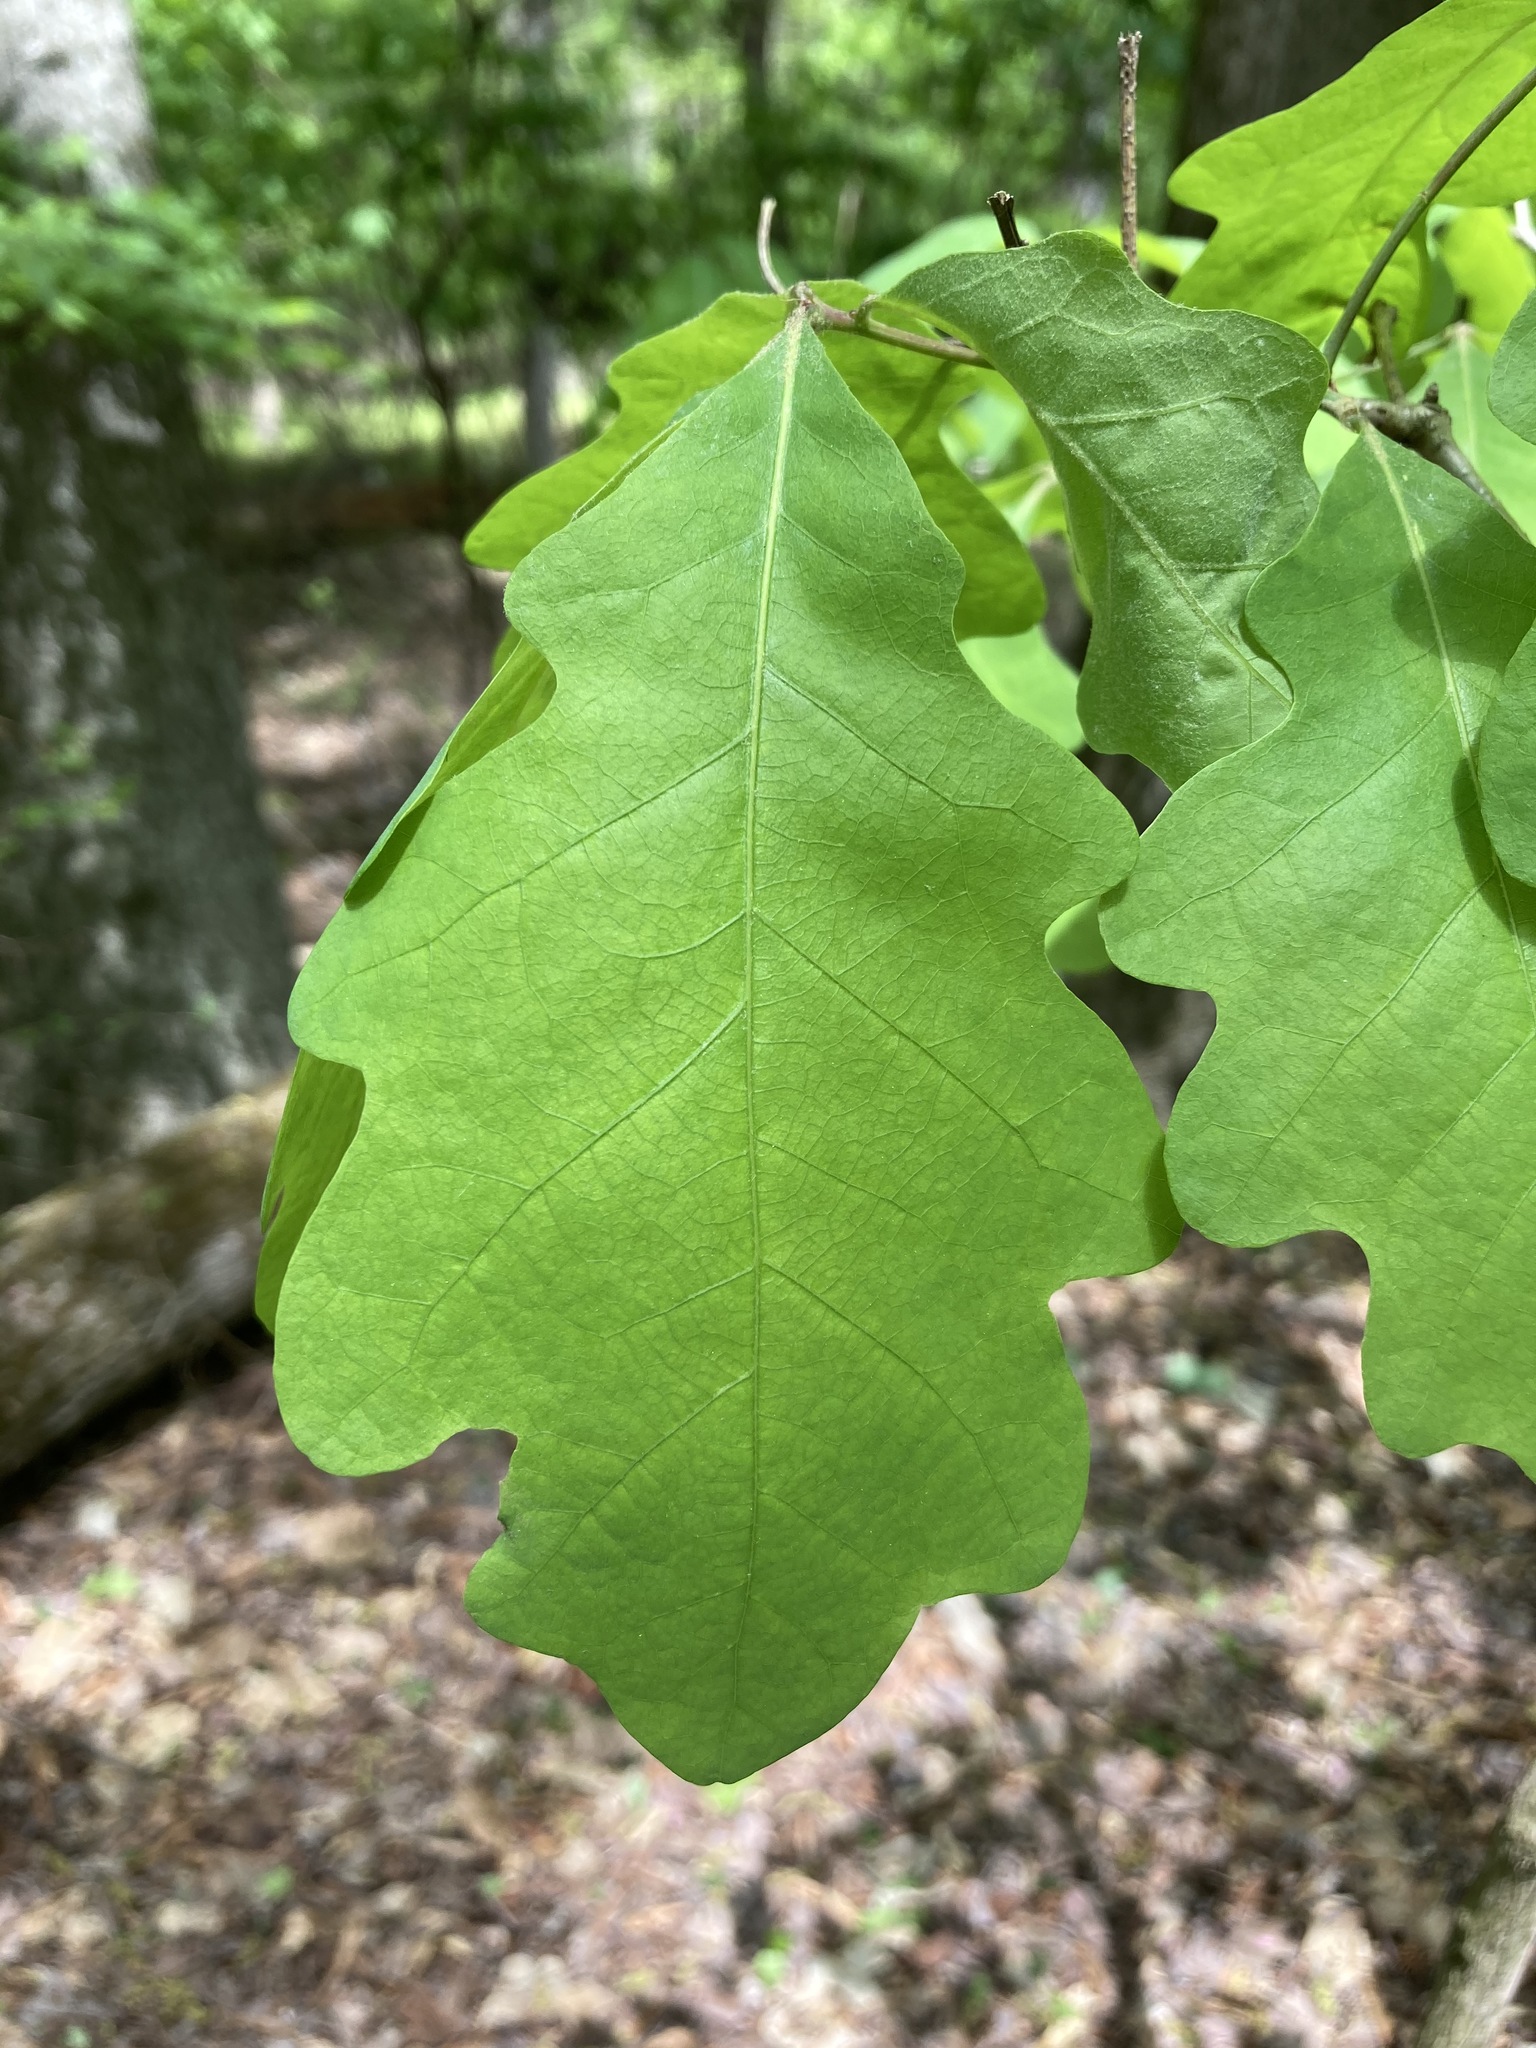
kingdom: Plantae
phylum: Tracheophyta
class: Magnoliopsida
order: Fagales
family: Fagaceae
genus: Quercus
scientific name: Quercus bicolor
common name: Swamp white oak
